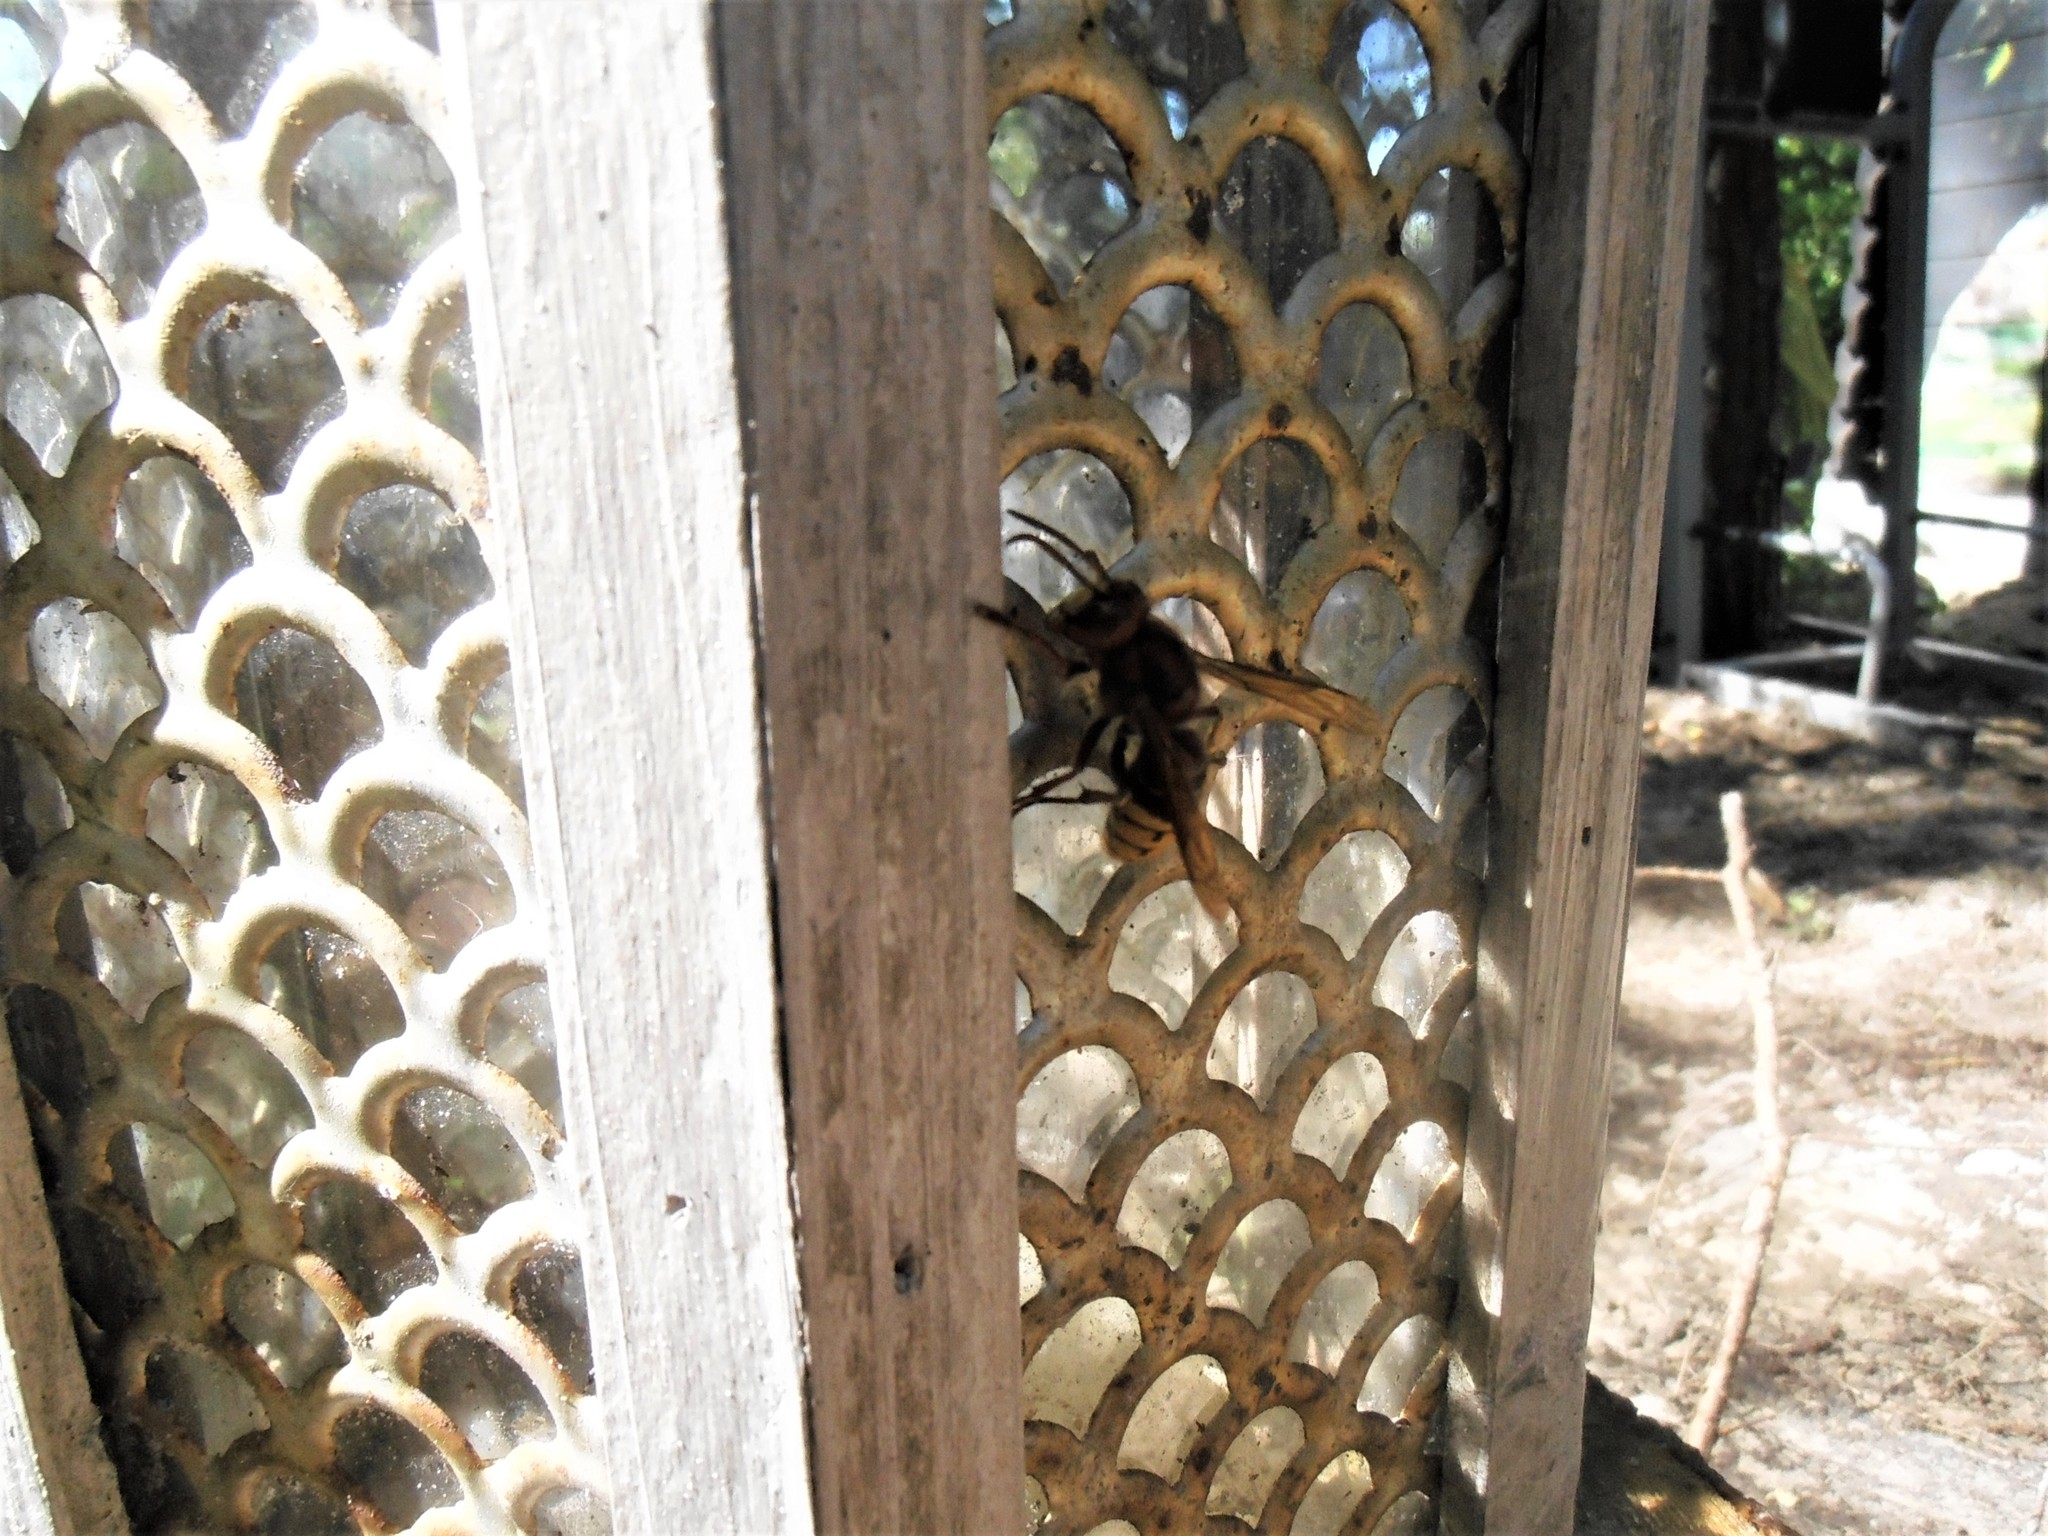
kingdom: Animalia
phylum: Arthropoda
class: Insecta
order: Hymenoptera
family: Vespidae
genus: Vespa
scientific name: Vespa crabro
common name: Hornet
